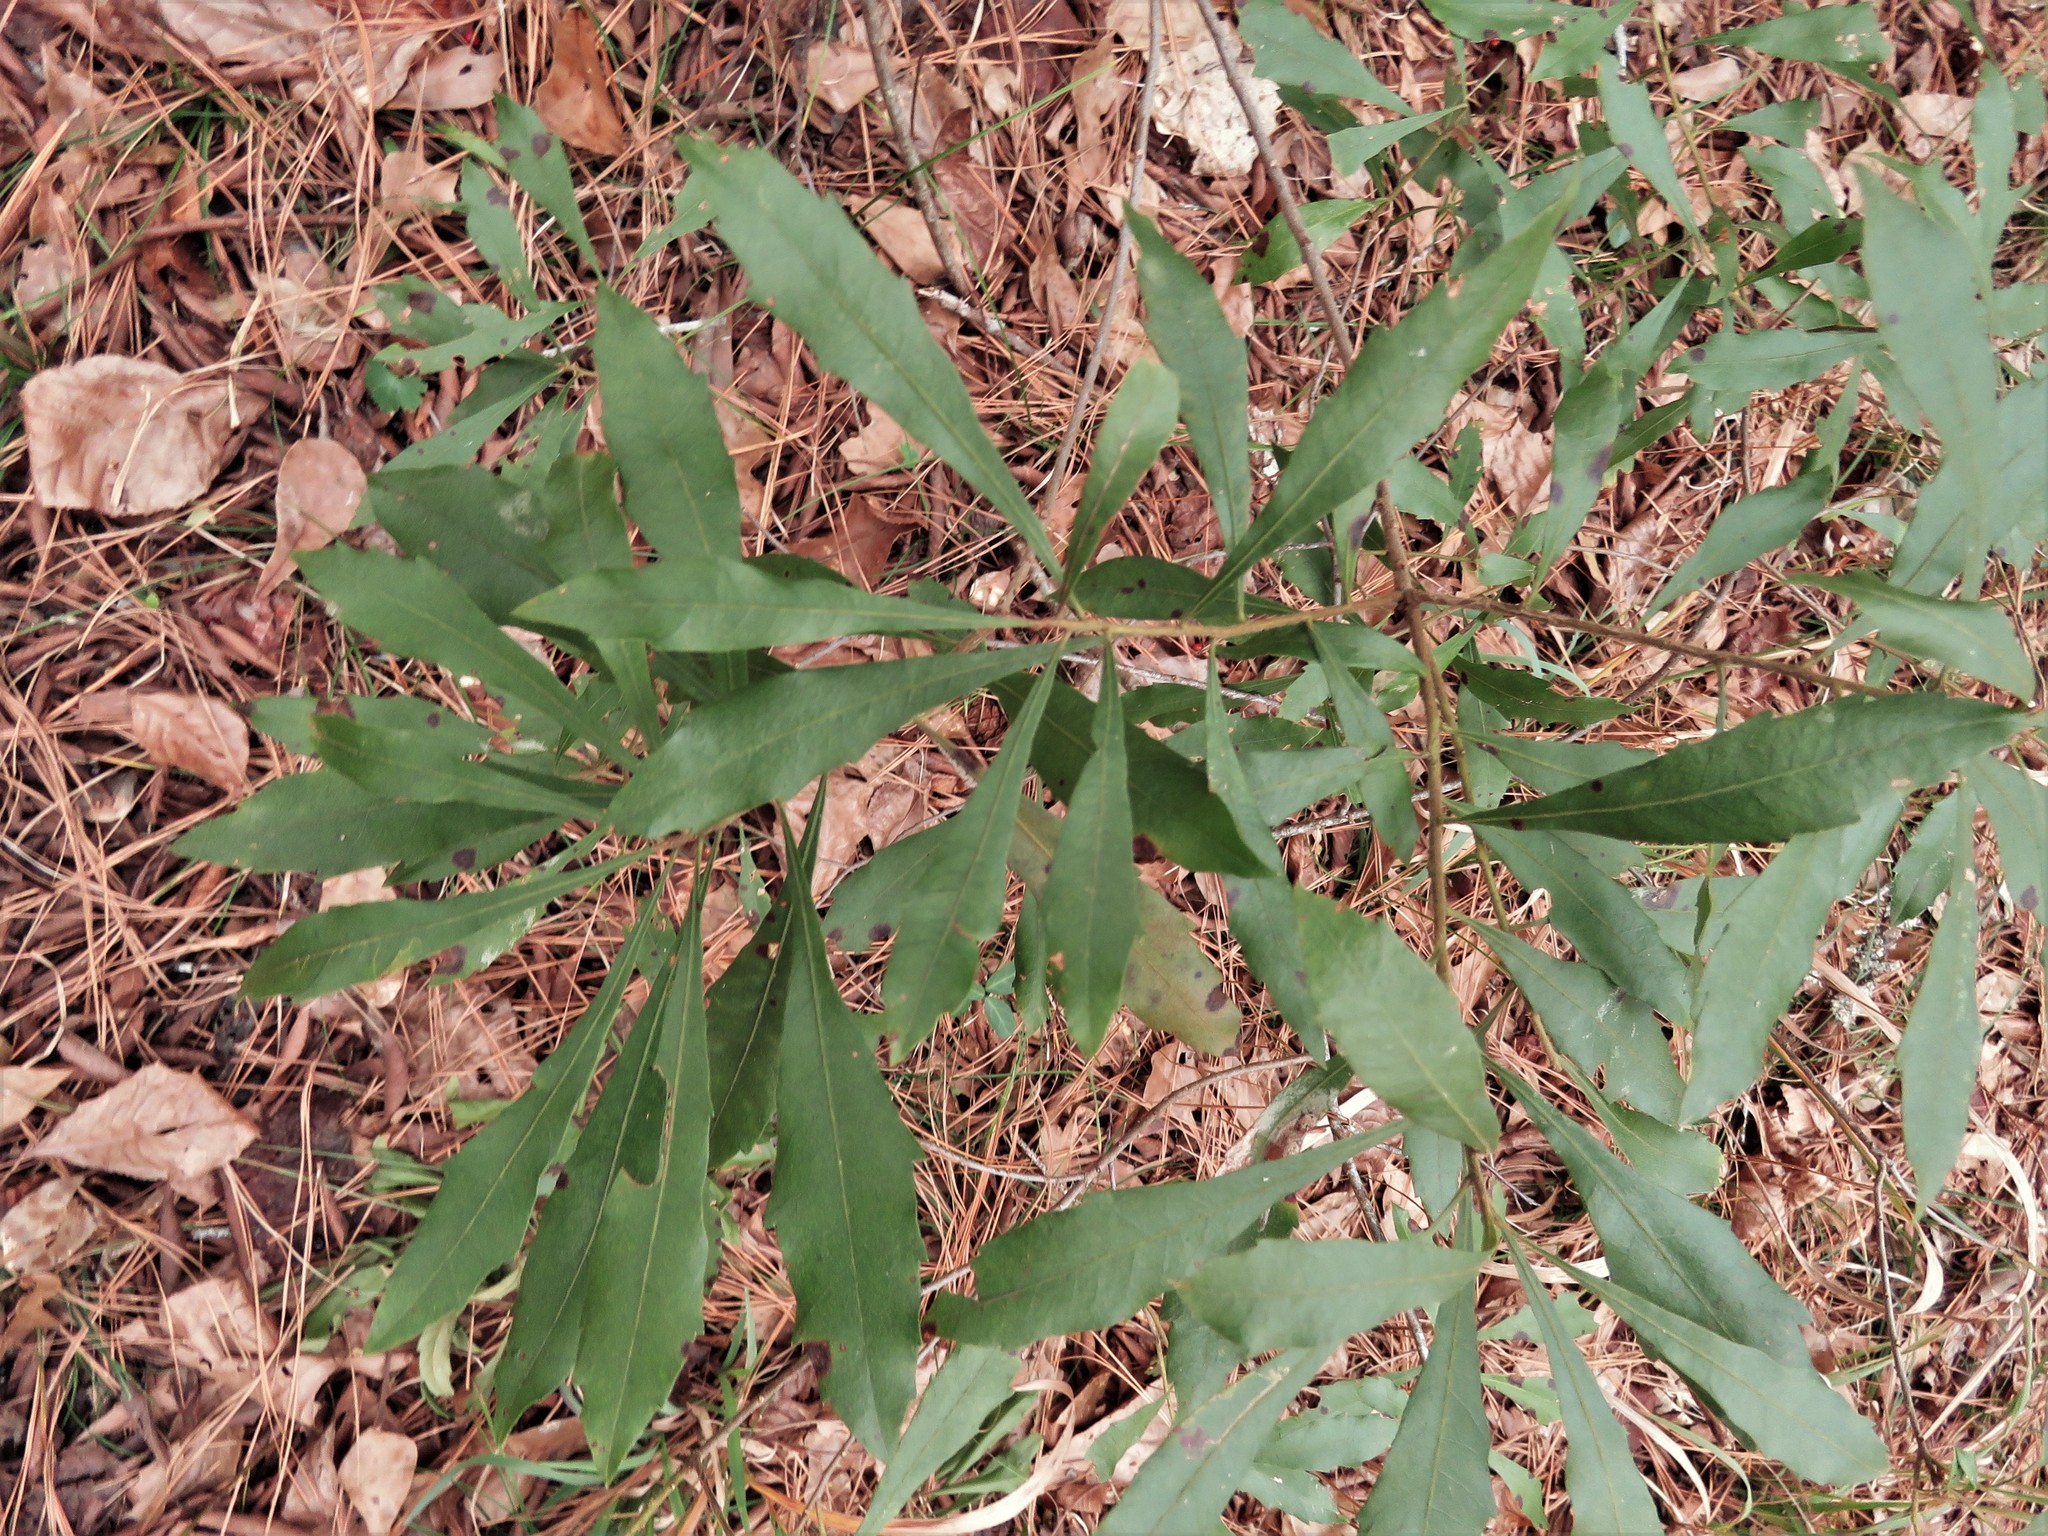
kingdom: Plantae
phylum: Tracheophyta
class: Magnoliopsida
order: Fagales
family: Myricaceae
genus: Morella
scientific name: Morella cerifera
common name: Wax myrtle
